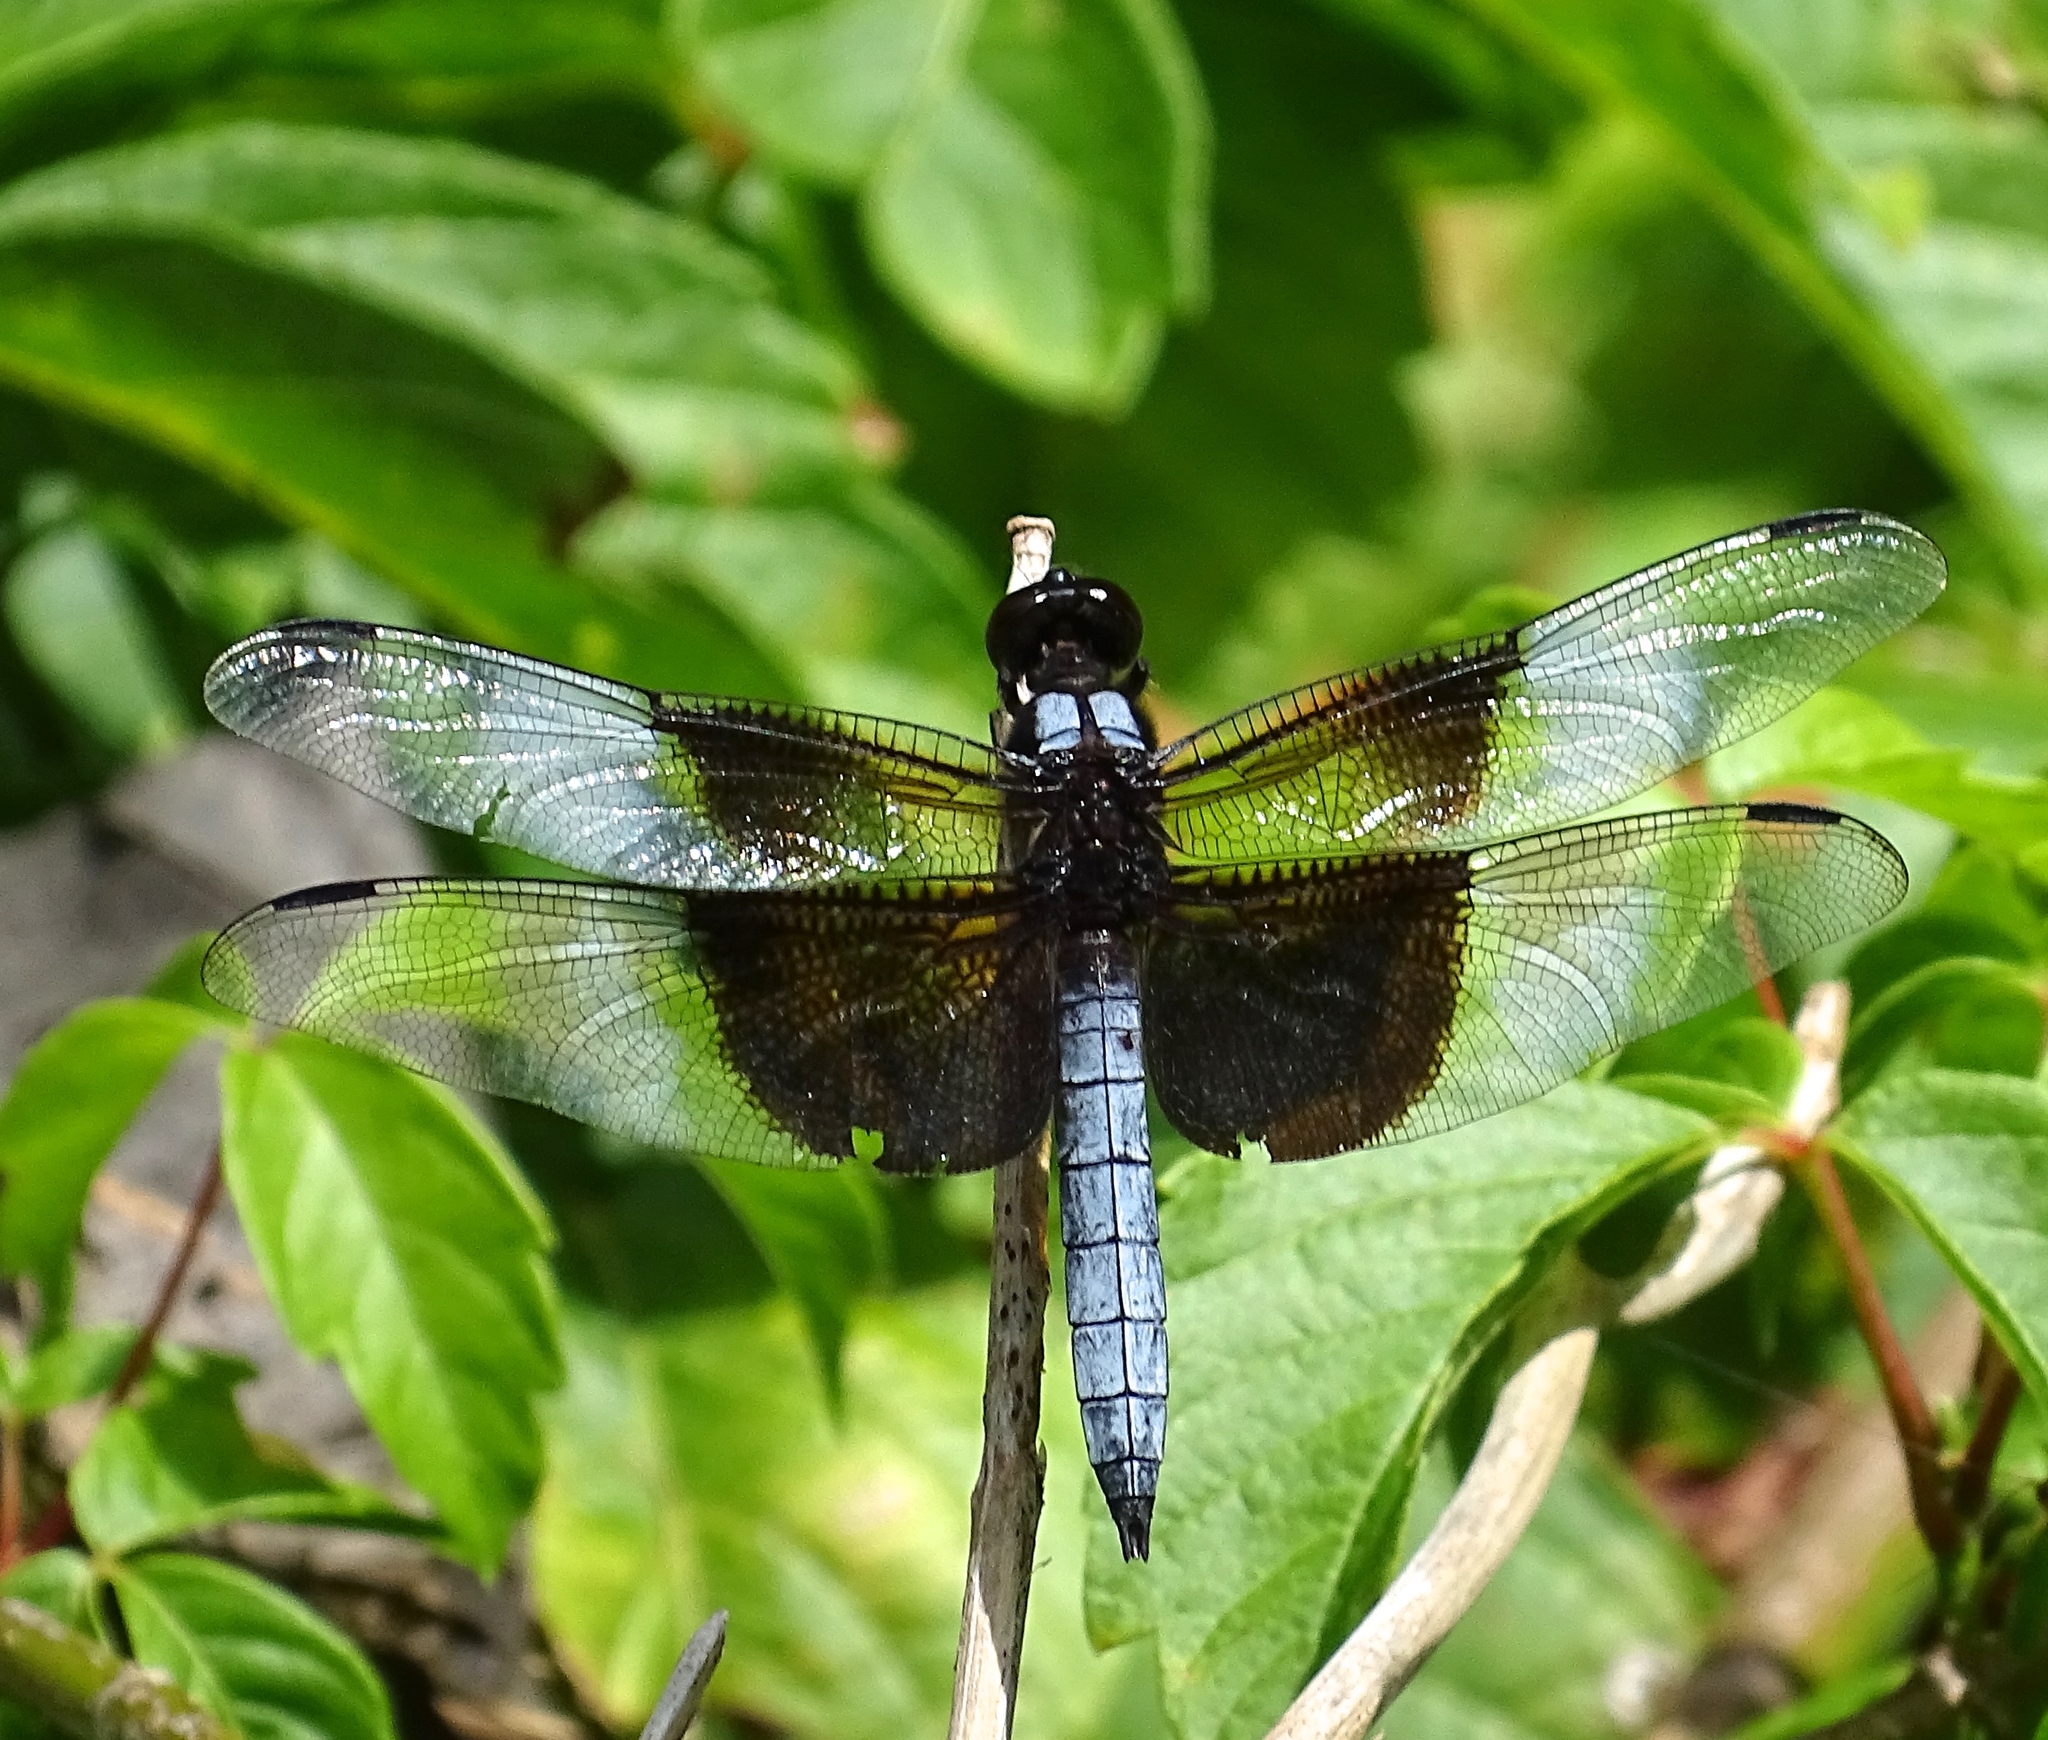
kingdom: Animalia
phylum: Arthropoda
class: Insecta
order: Odonata
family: Libellulidae
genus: Libellula
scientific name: Libellula luctuosa
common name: Widow skimmer
